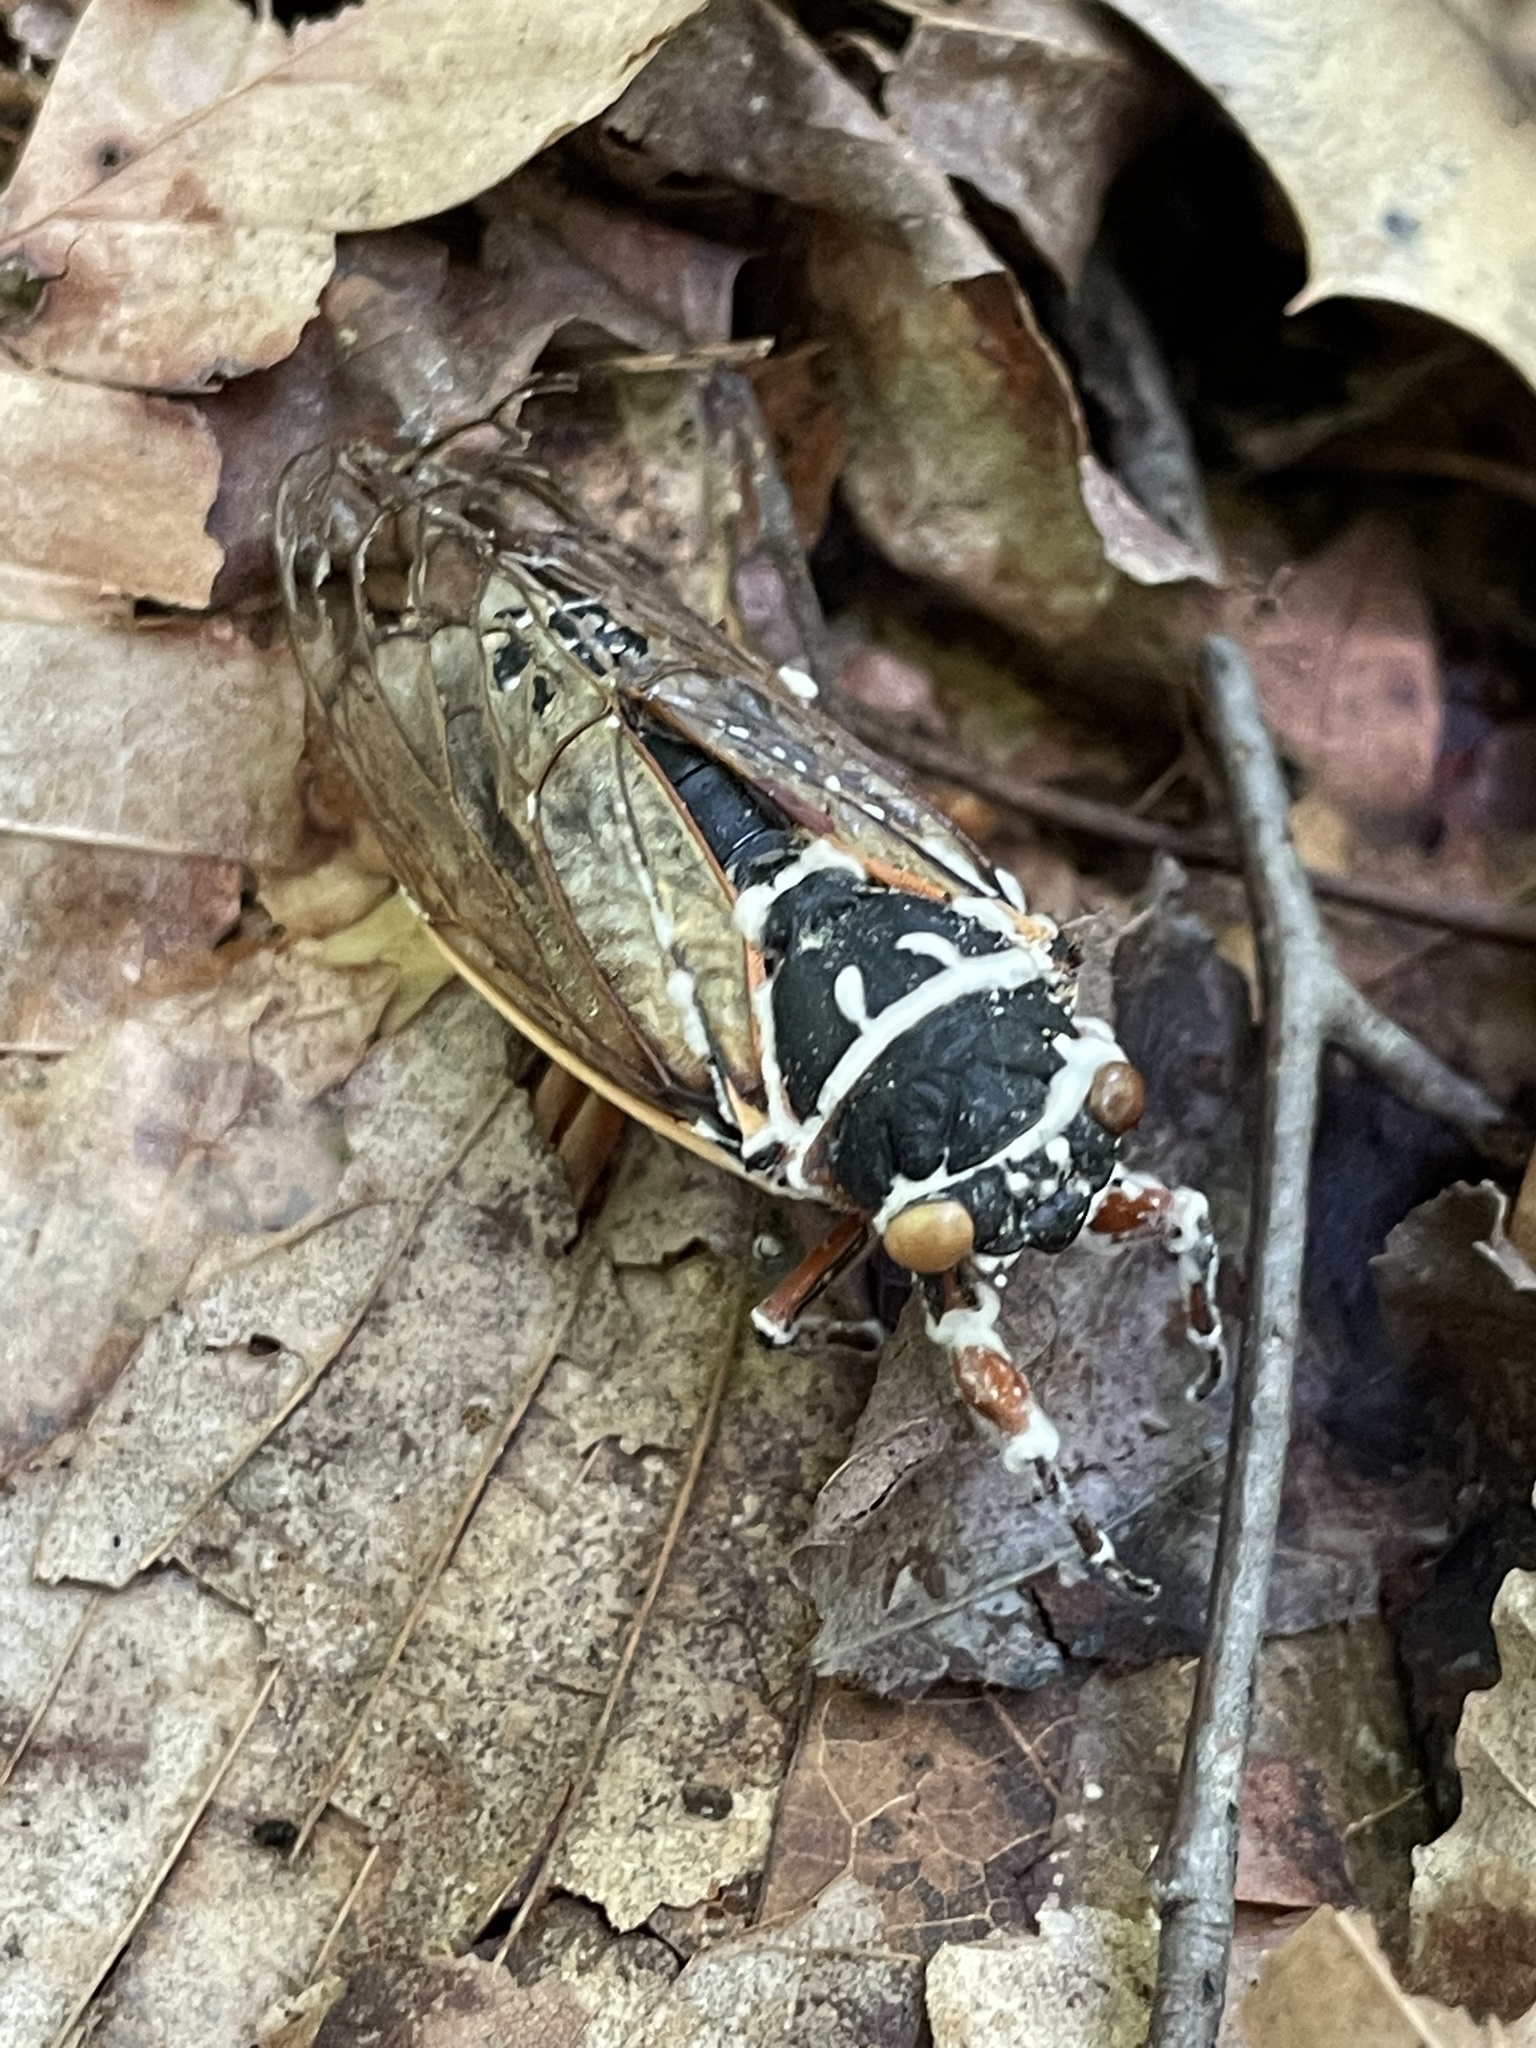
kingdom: Fungi
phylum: Ascomycota
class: Sordariomycetes
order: Hypocreales
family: Cordycipitaceae
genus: Beauveria
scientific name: Beauveria bassiana
